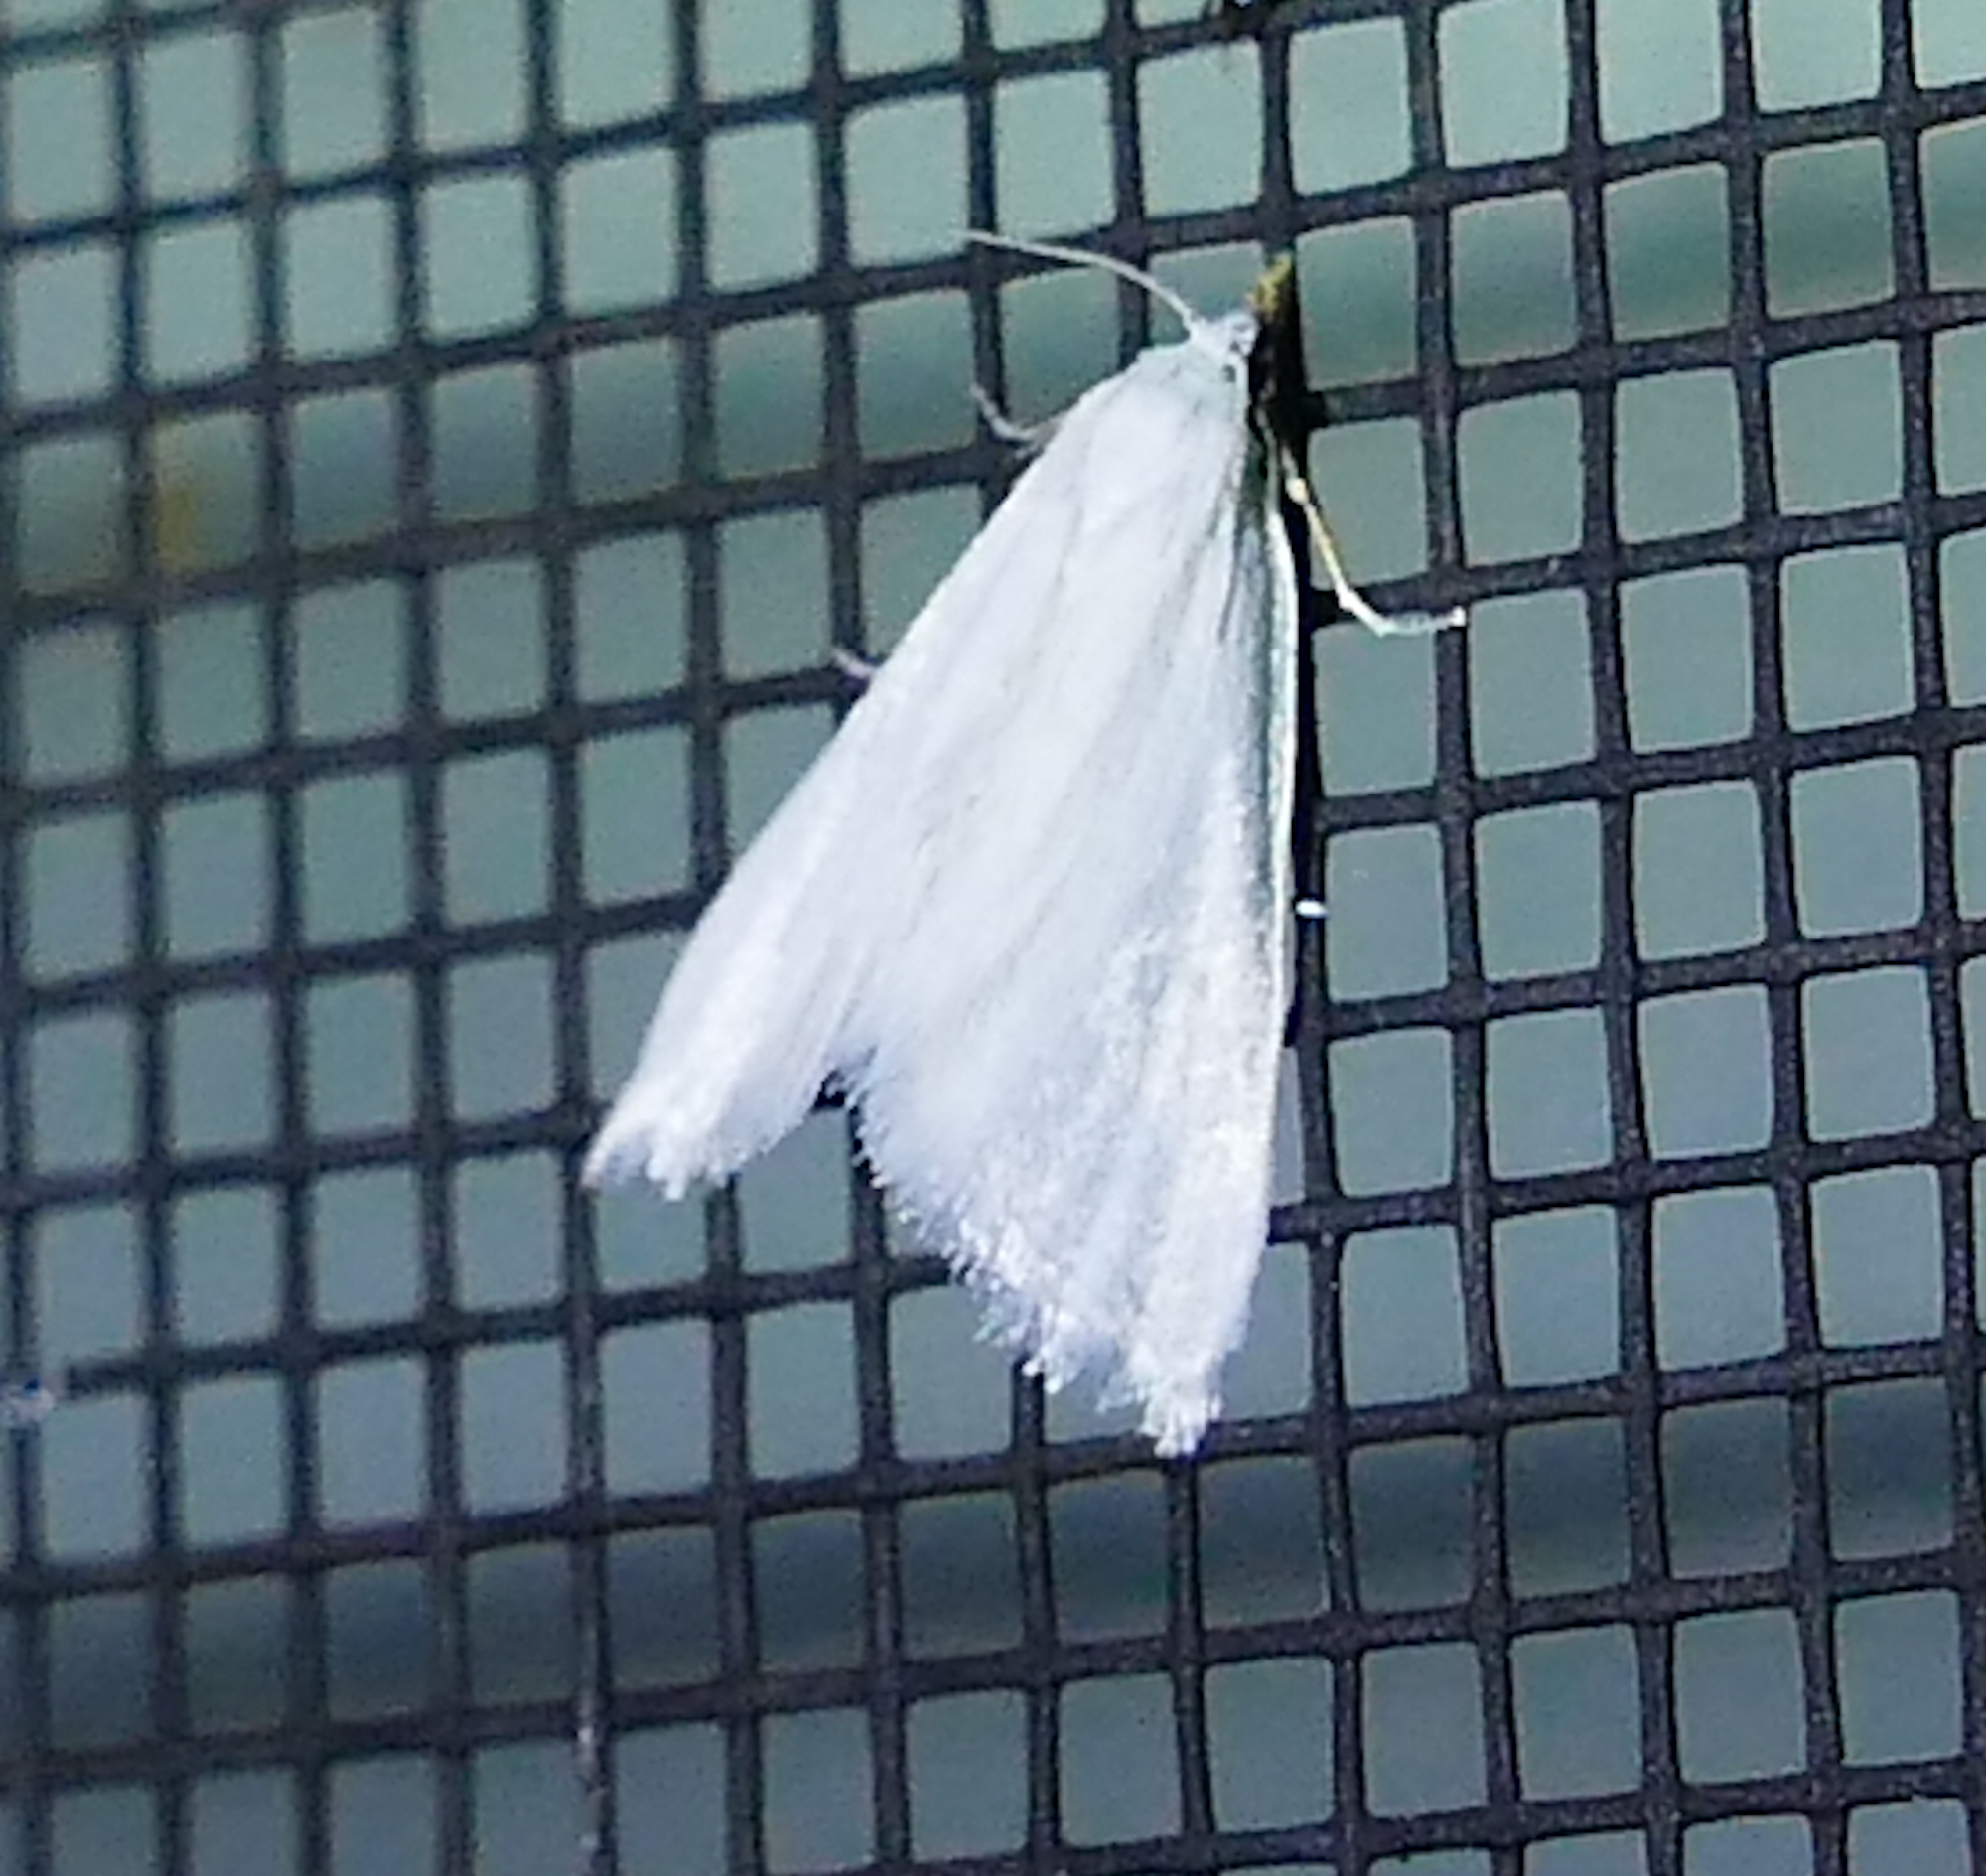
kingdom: Animalia
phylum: Arthropoda
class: Insecta
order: Lepidoptera
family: Crambidae
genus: Leptosteges
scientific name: Leptosteges vestaliella
